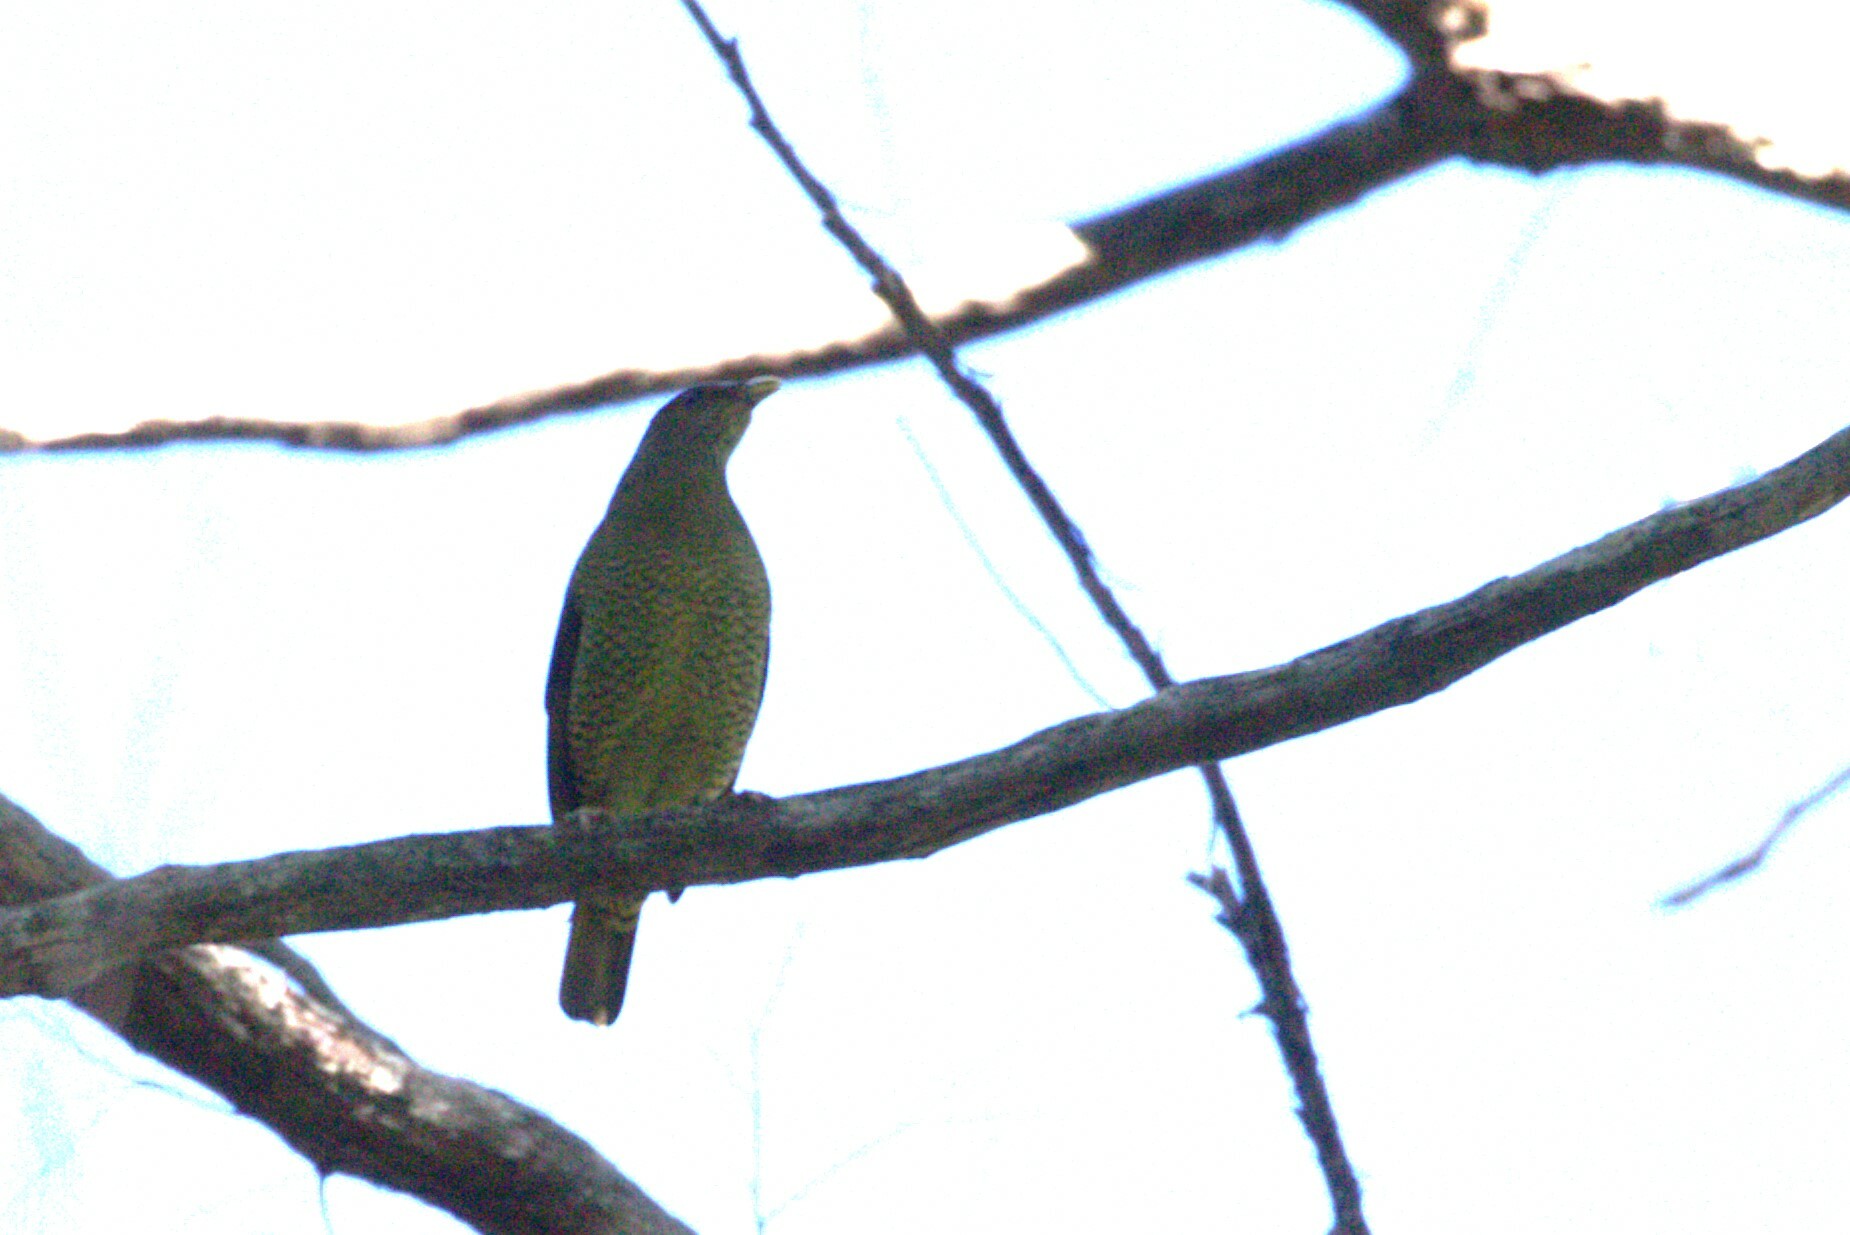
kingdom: Animalia
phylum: Chordata
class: Aves
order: Passeriformes
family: Ptilonorhynchidae
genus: Ptilonorhynchus
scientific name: Ptilonorhynchus violaceus
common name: Satin bowerbird
